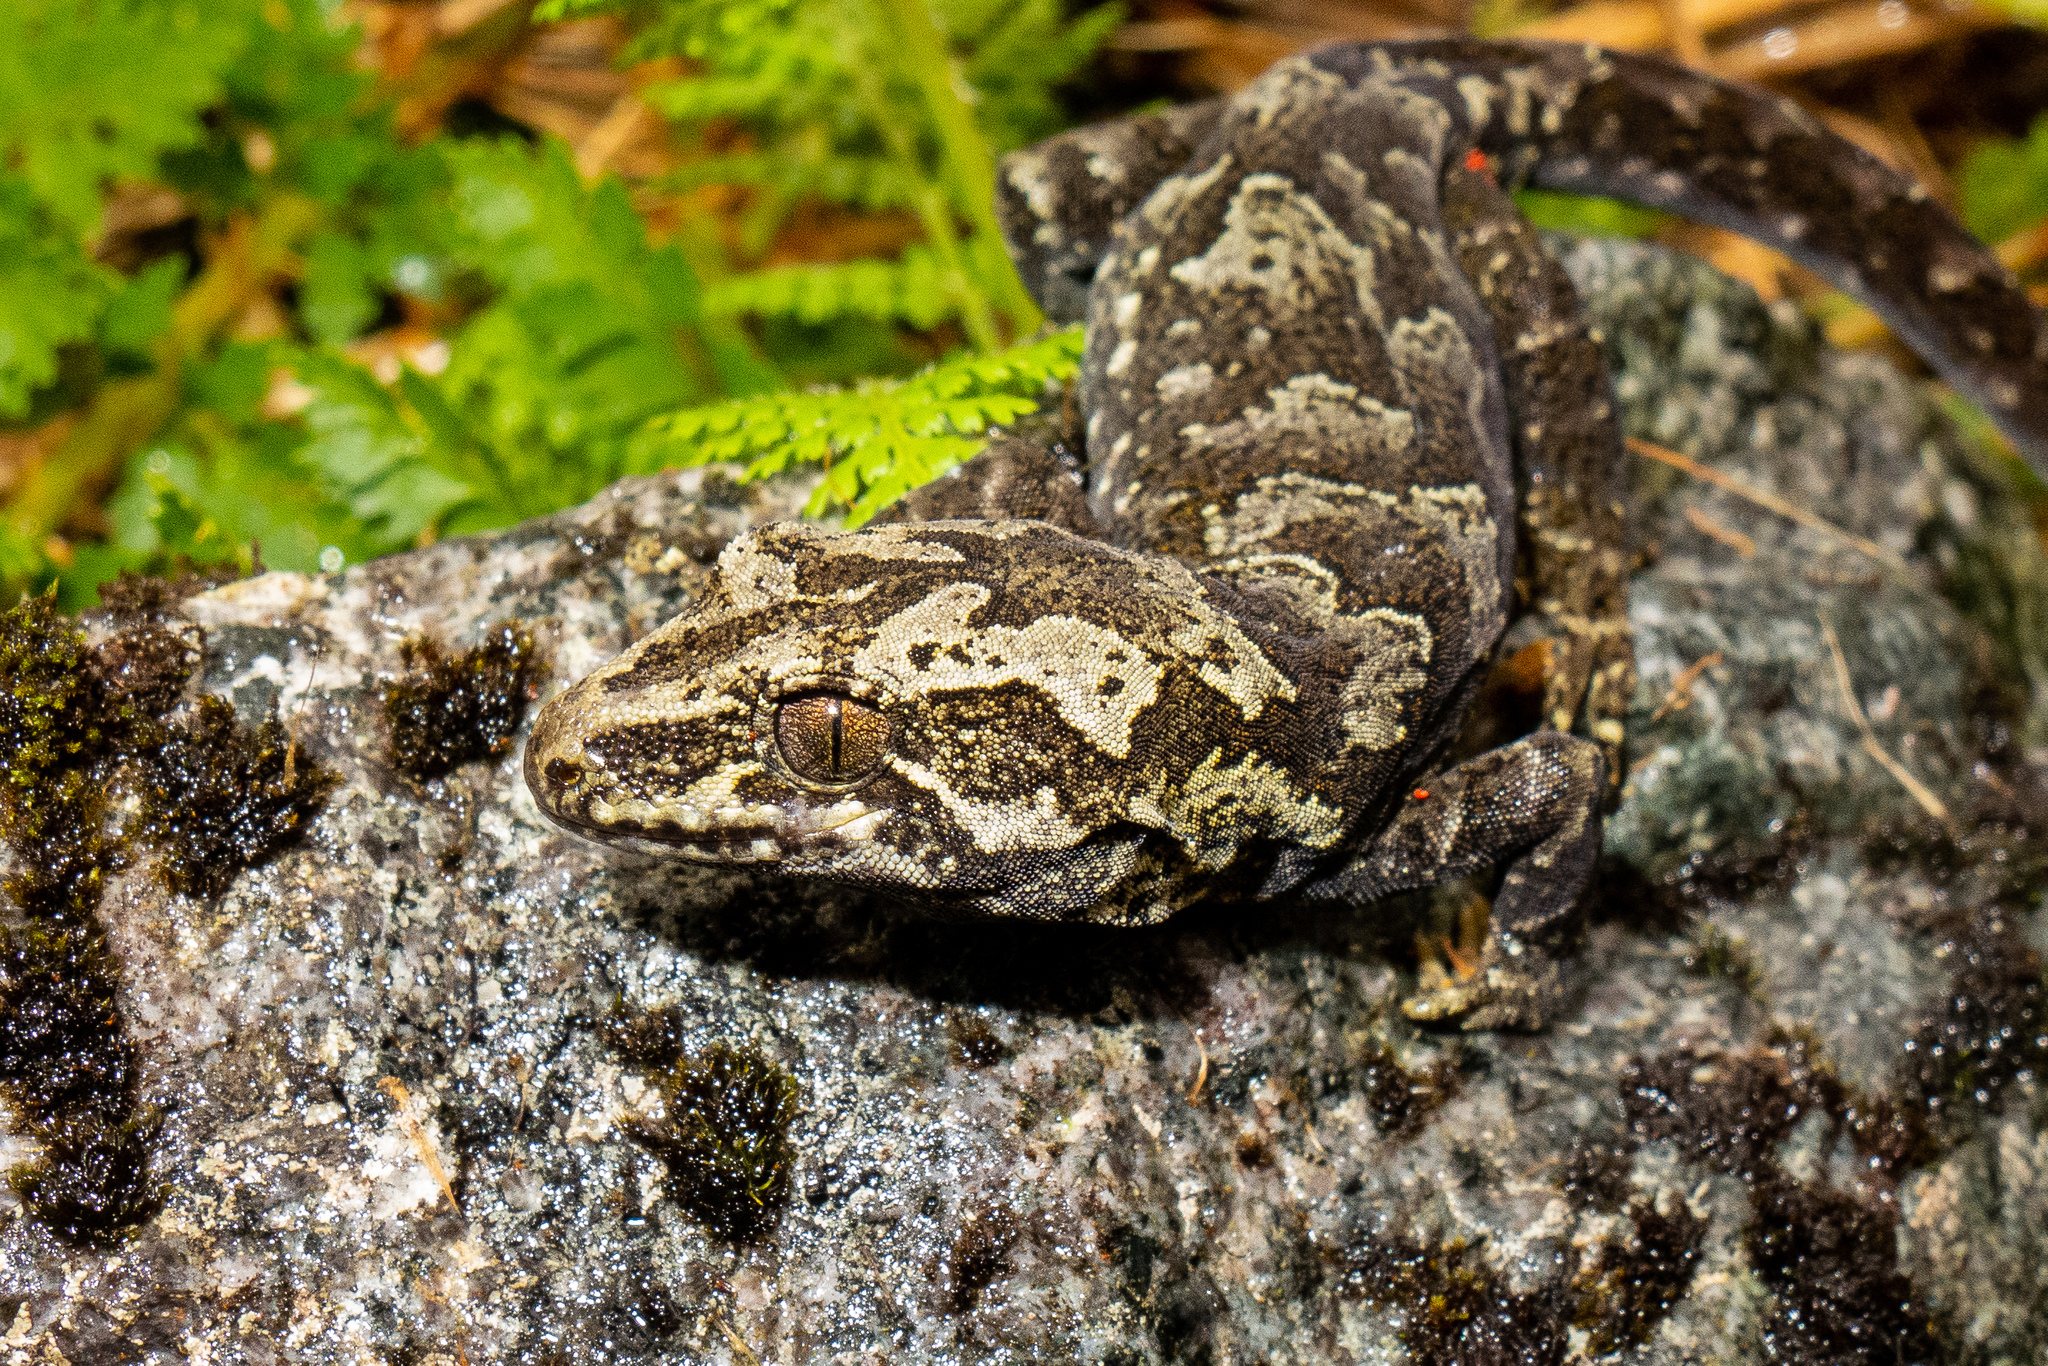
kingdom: Animalia
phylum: Chordata
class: Squamata
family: Diplodactylidae
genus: Mokopirirakau
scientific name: Mokopirirakau
